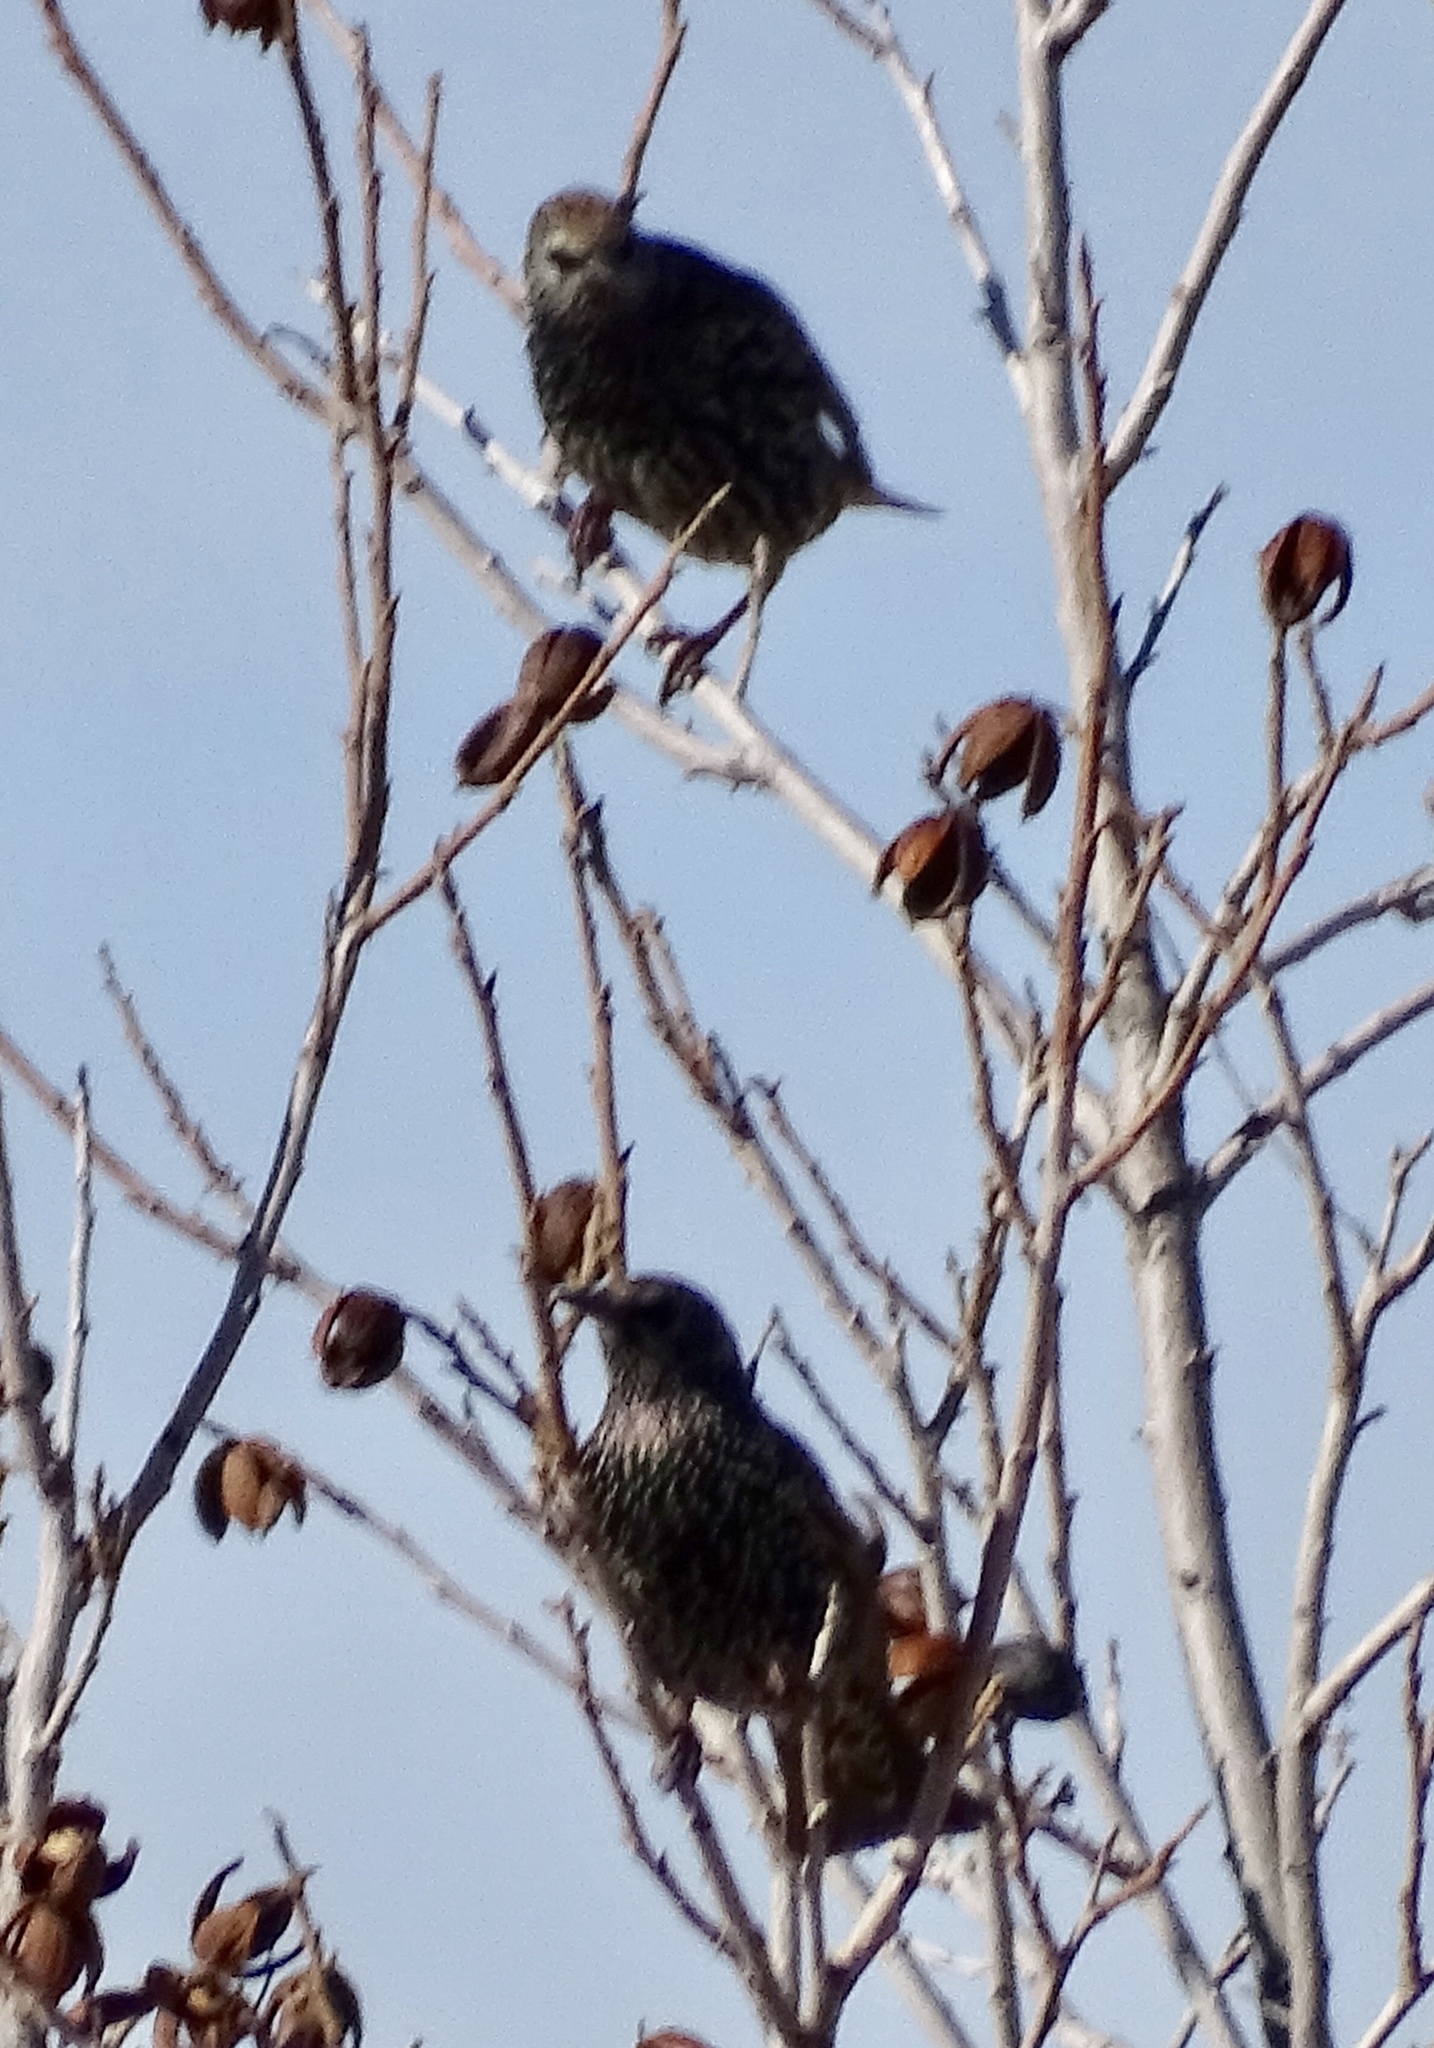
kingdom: Animalia
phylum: Chordata
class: Aves
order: Passeriformes
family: Sturnidae
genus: Sturnus
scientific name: Sturnus vulgaris
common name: Common starling
